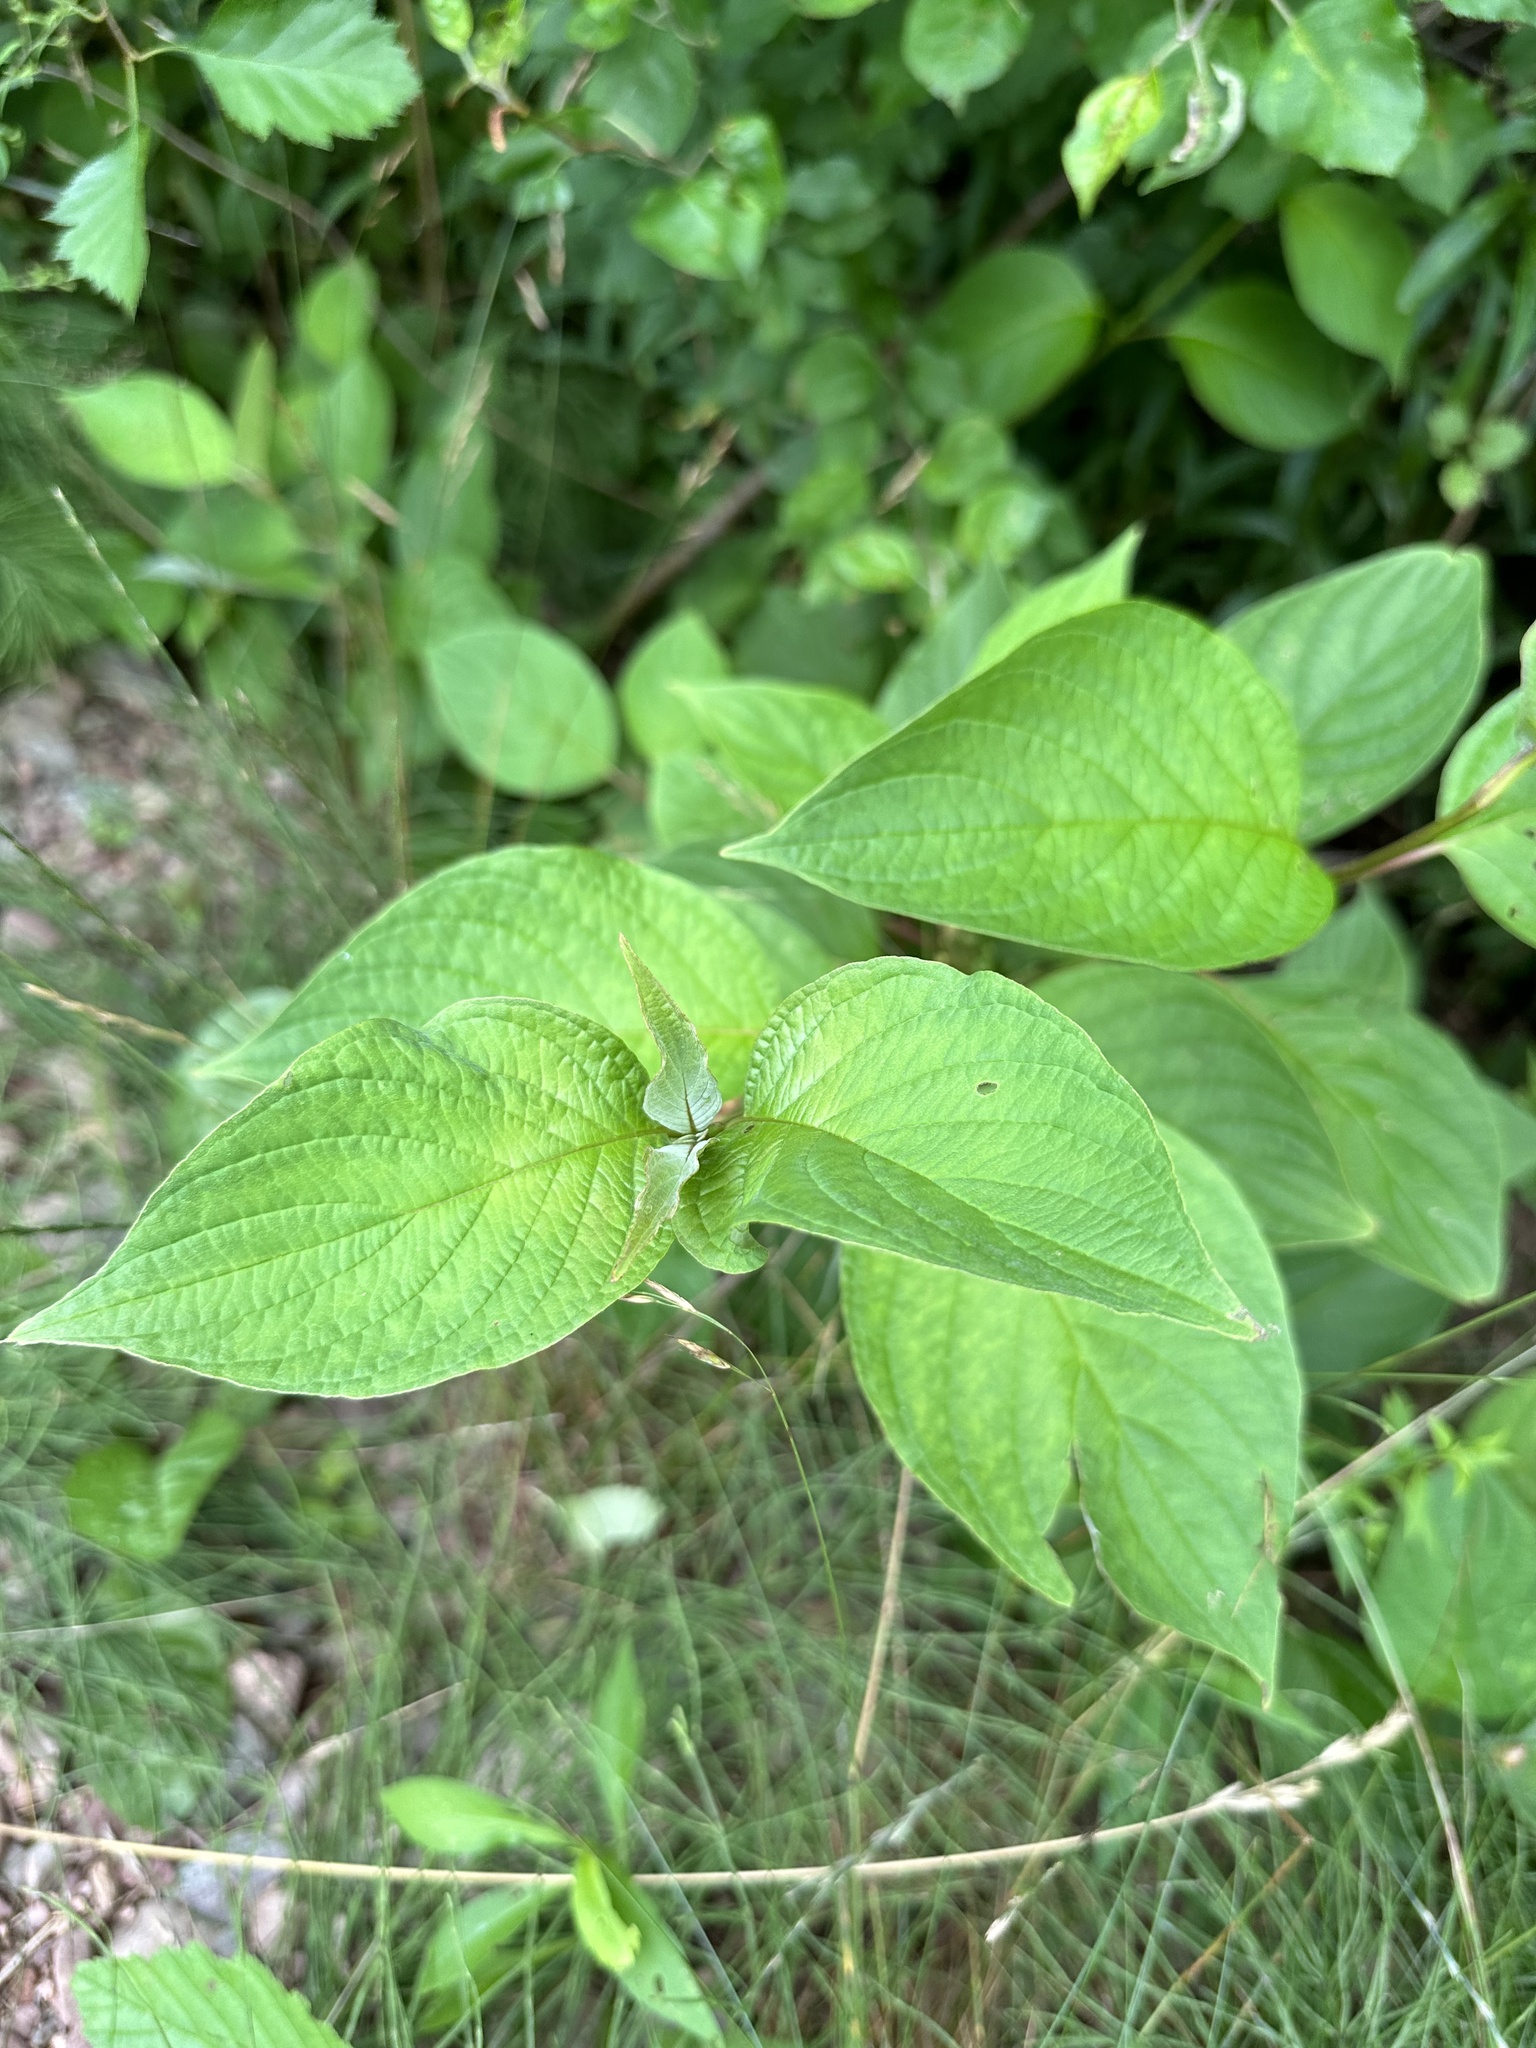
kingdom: Plantae
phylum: Tracheophyta
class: Magnoliopsida
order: Cornales
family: Cornaceae
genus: Cornus
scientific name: Cornus sericea
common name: Red-osier dogwood
